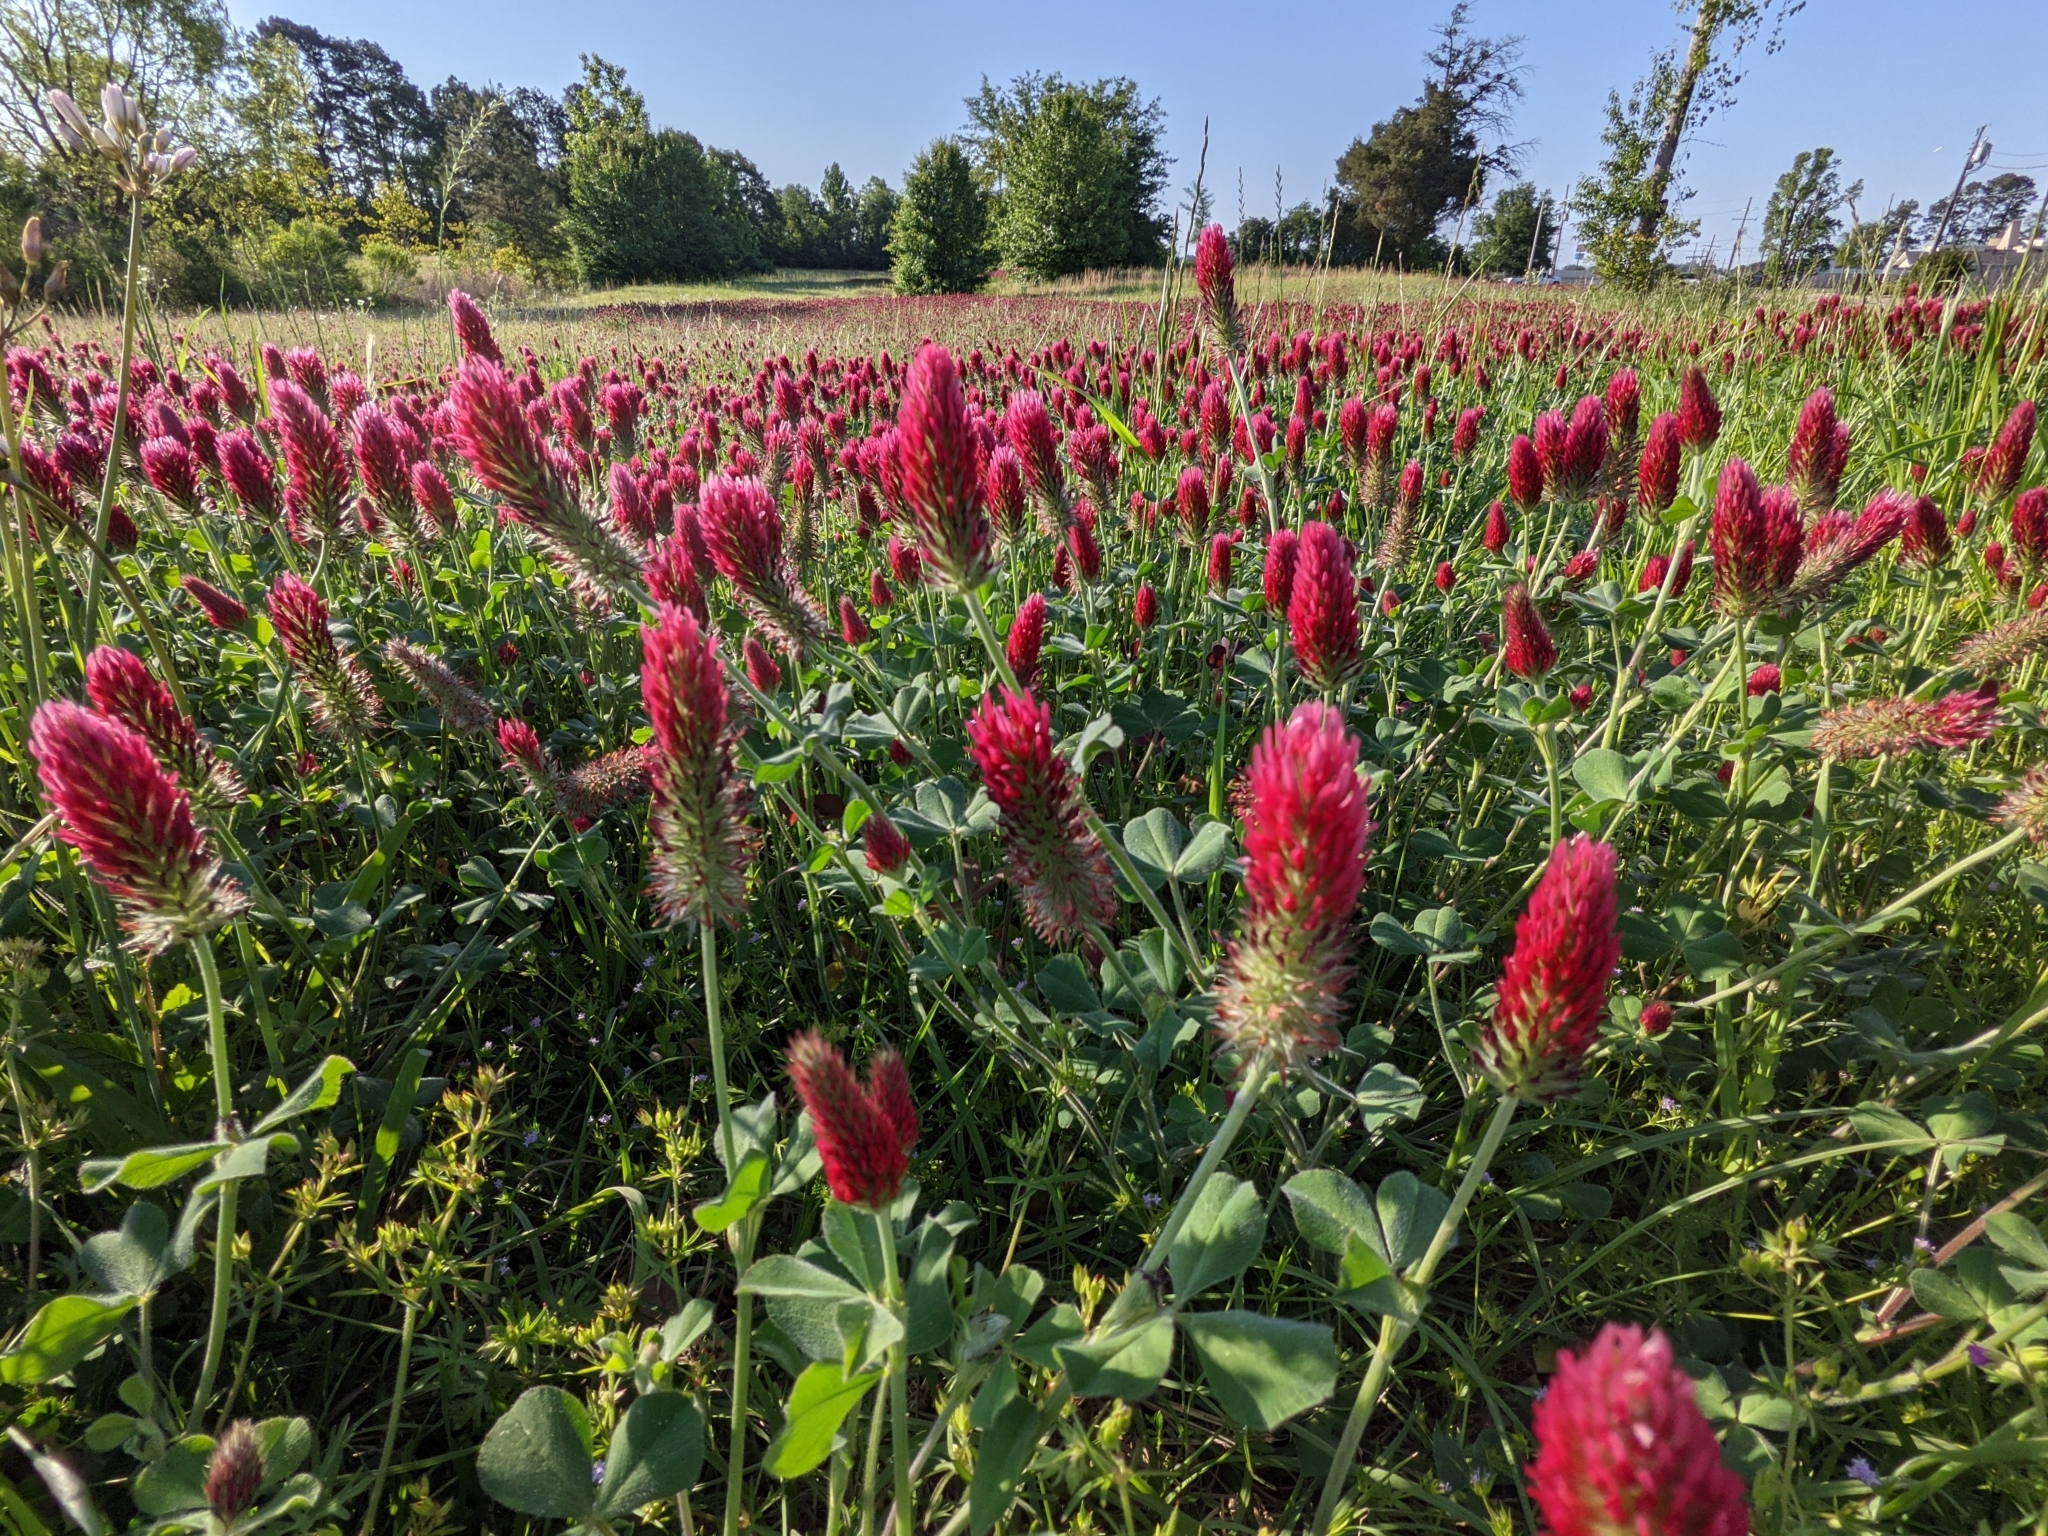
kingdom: Plantae
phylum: Tracheophyta
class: Magnoliopsida
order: Fabales
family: Fabaceae
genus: Trifolium
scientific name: Trifolium incarnatum
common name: Crimson clover
